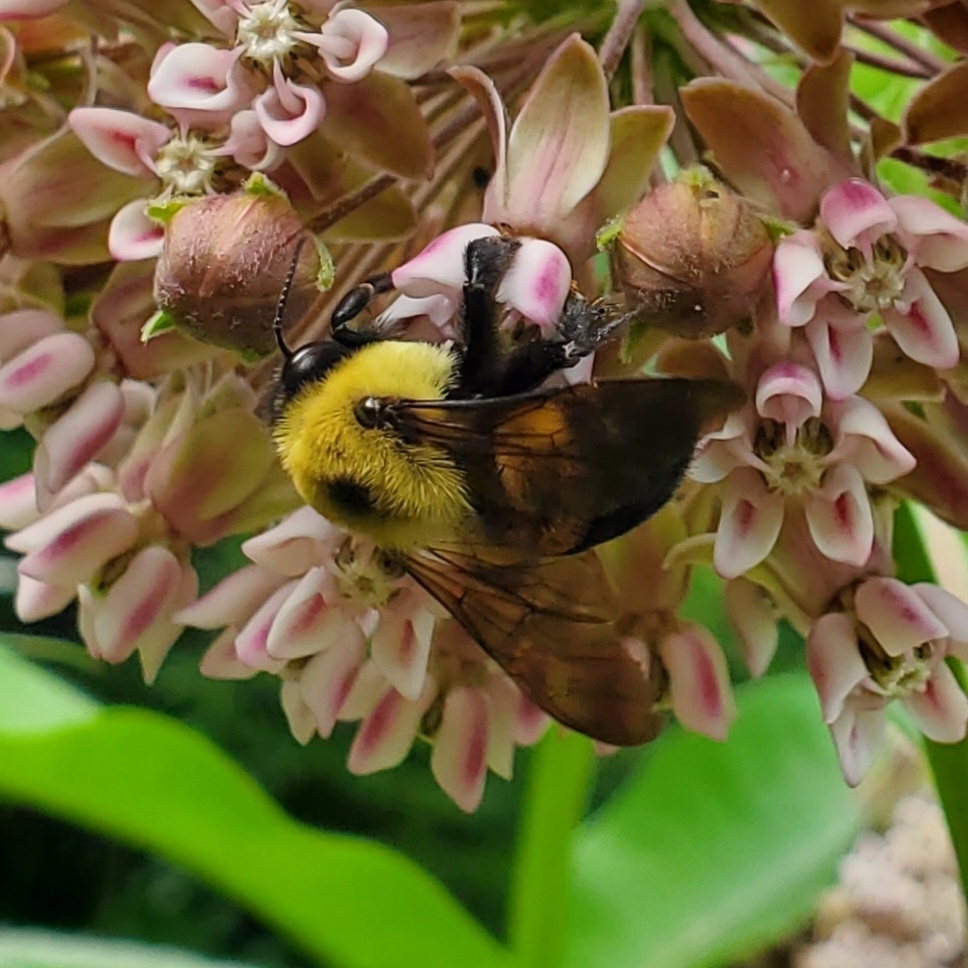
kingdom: Animalia
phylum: Arthropoda
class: Insecta
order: Hymenoptera
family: Apidae
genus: Bombus
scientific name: Bombus griseocollis
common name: Brown-belted bumble bee
